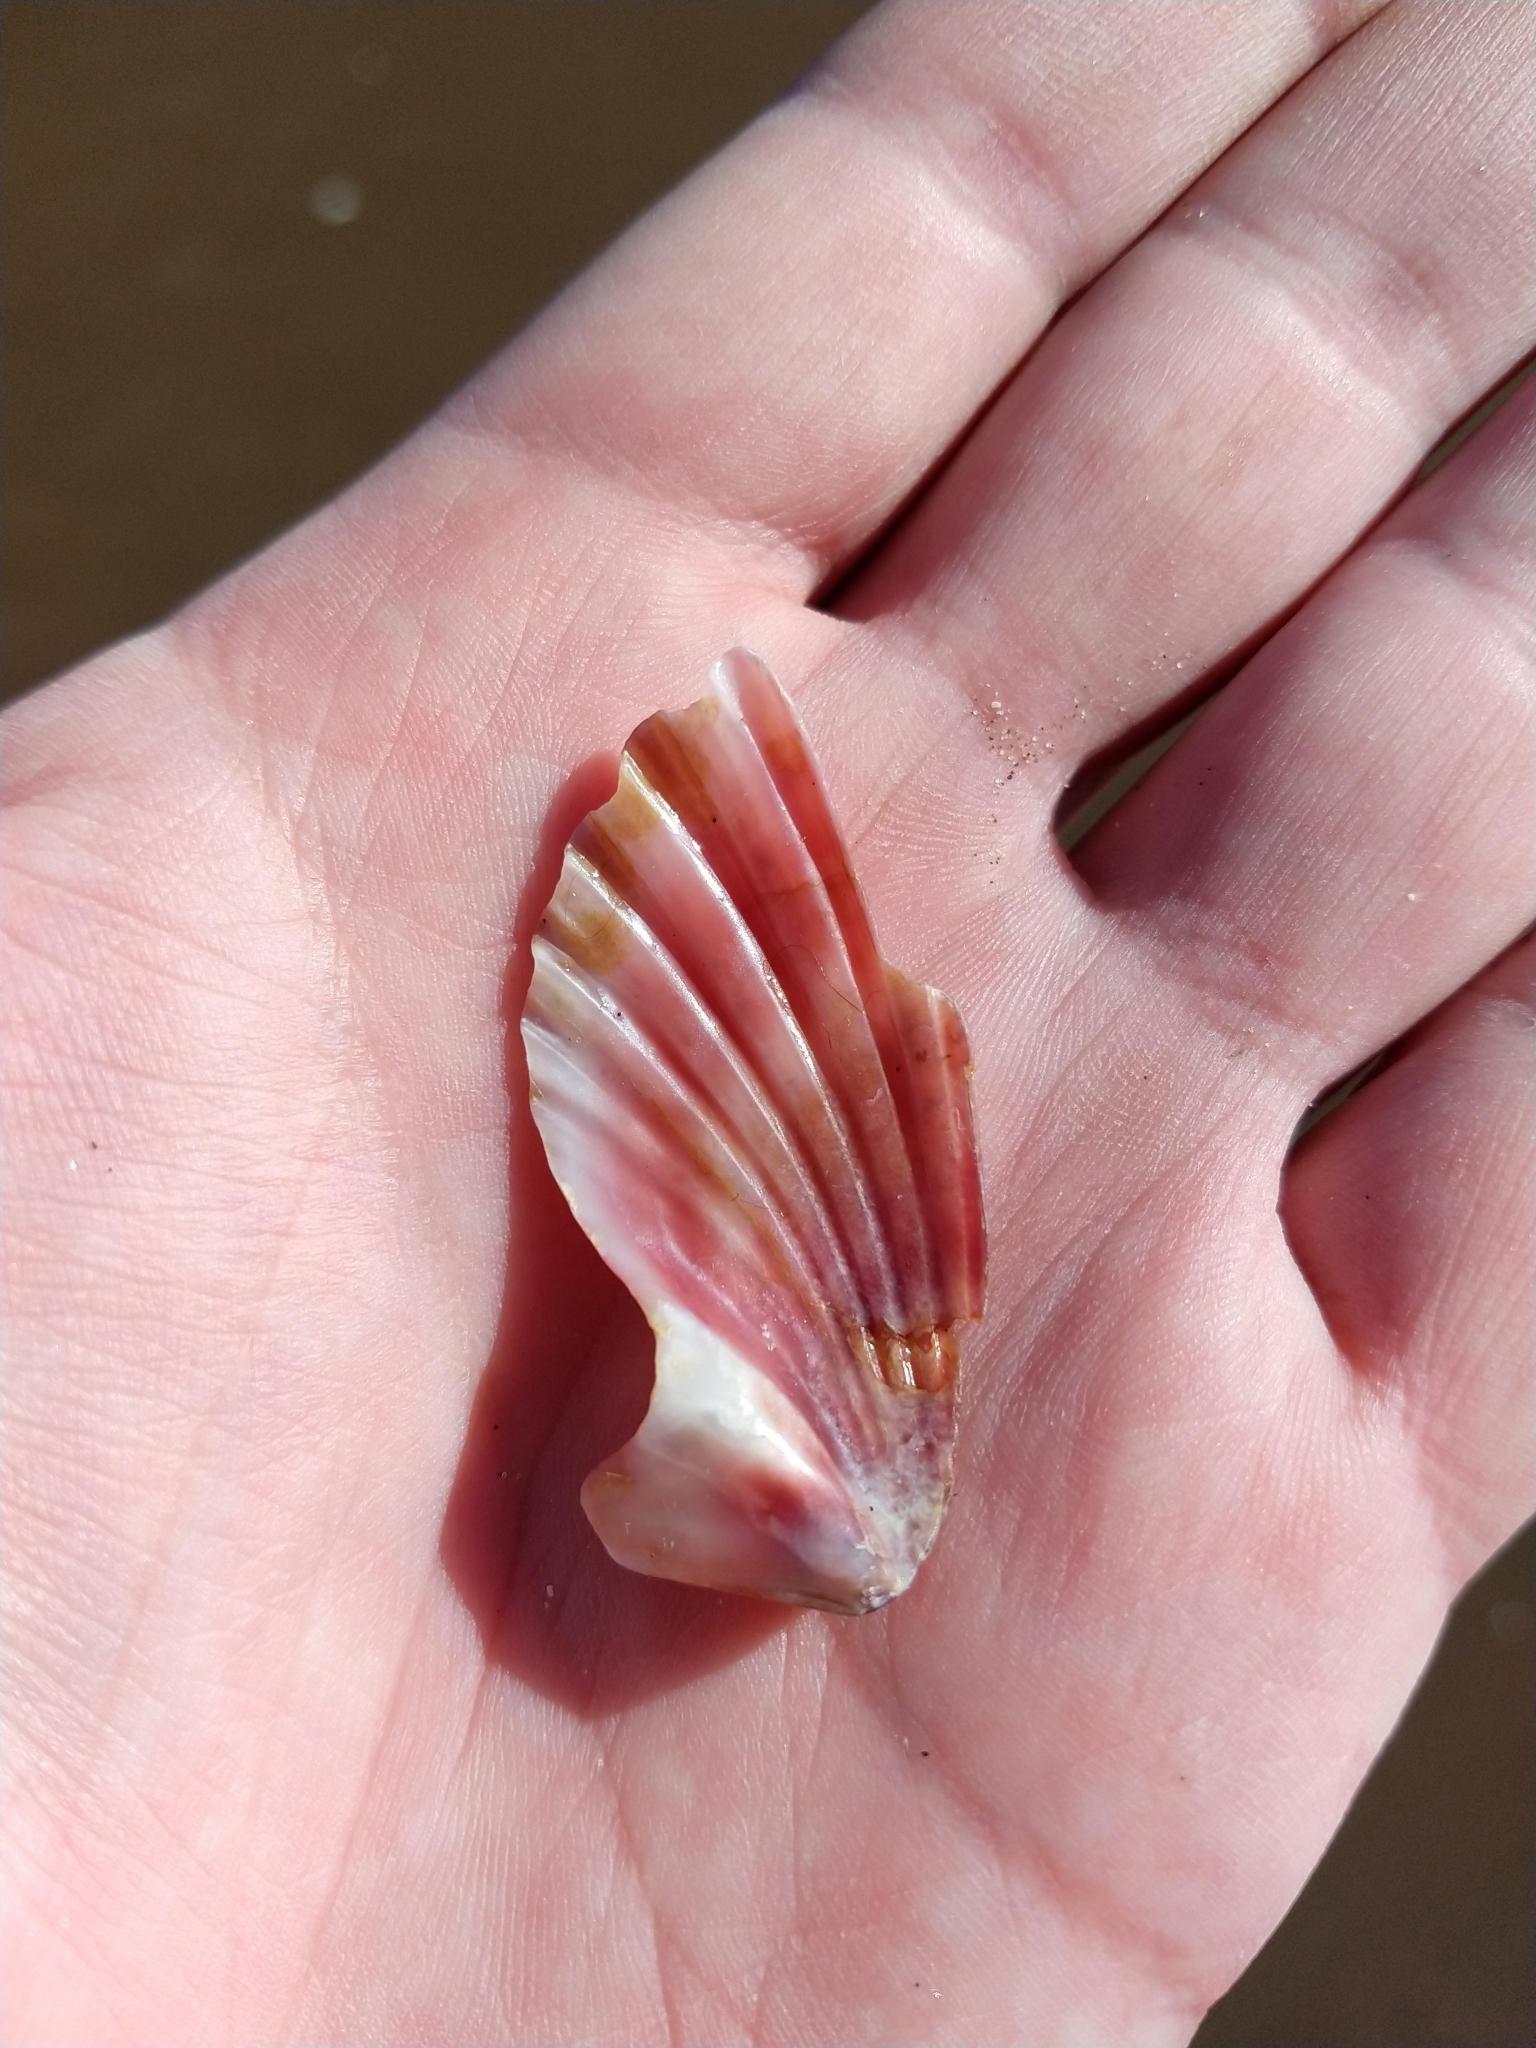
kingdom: Animalia
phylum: Mollusca
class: Bivalvia
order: Pectinida
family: Pectinidae
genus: Aequipecten
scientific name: Aequipecten tehuelchus
